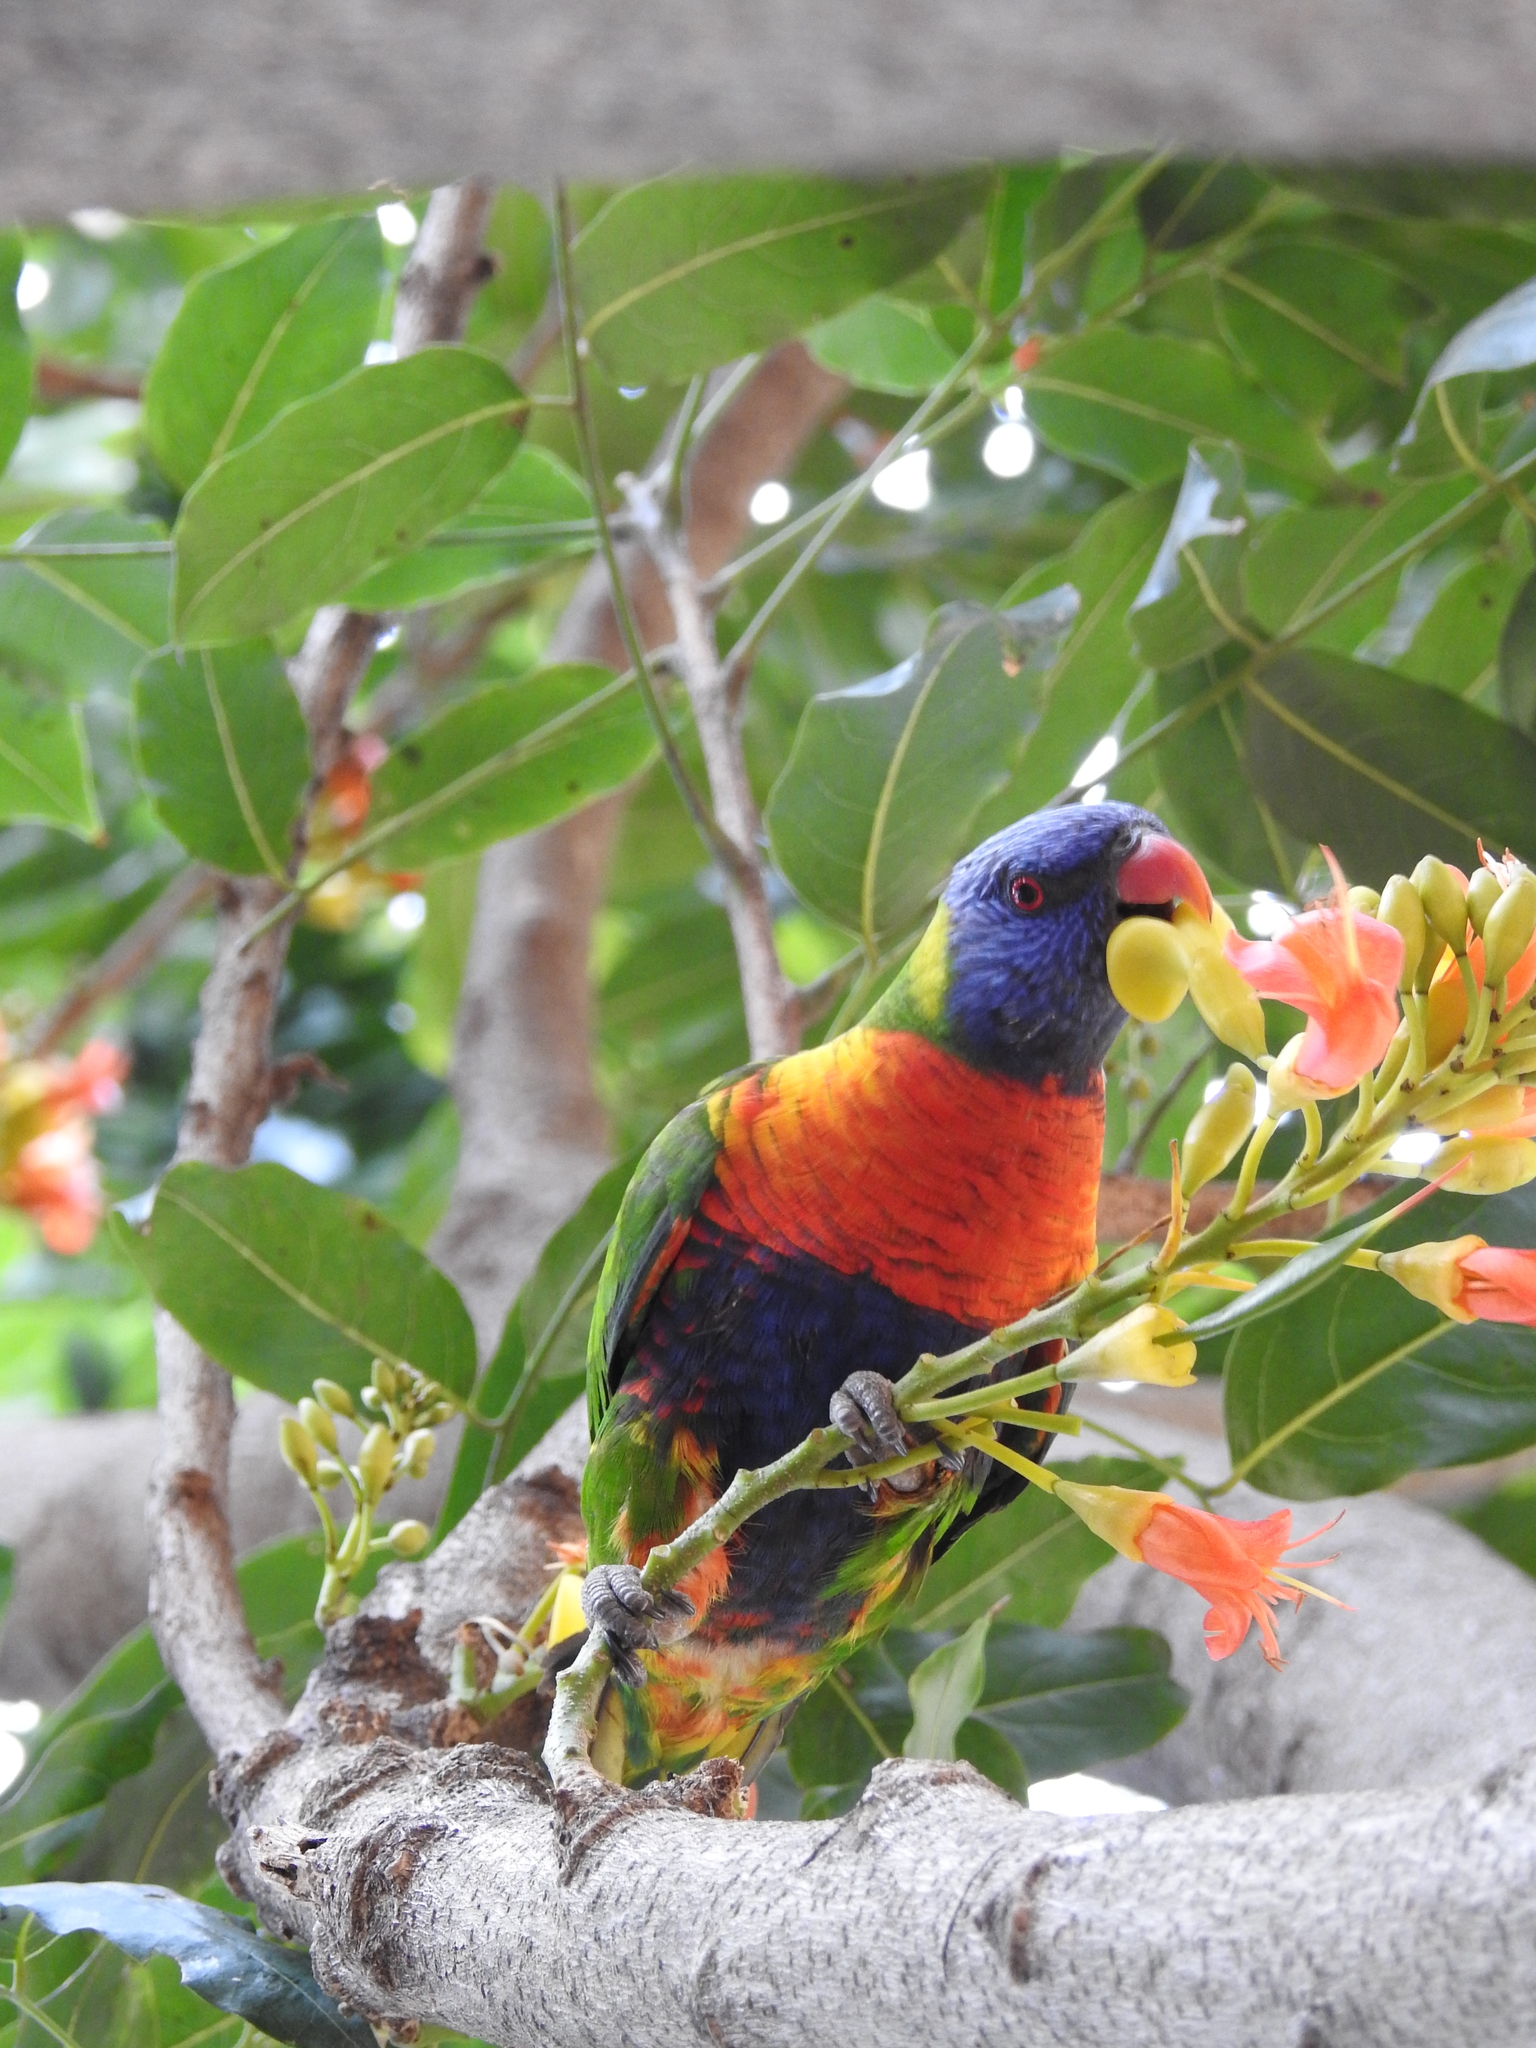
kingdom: Animalia
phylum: Chordata
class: Aves
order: Psittaciformes
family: Psittacidae
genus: Trichoglossus
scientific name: Trichoglossus haematodus
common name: Coconut lorikeet
